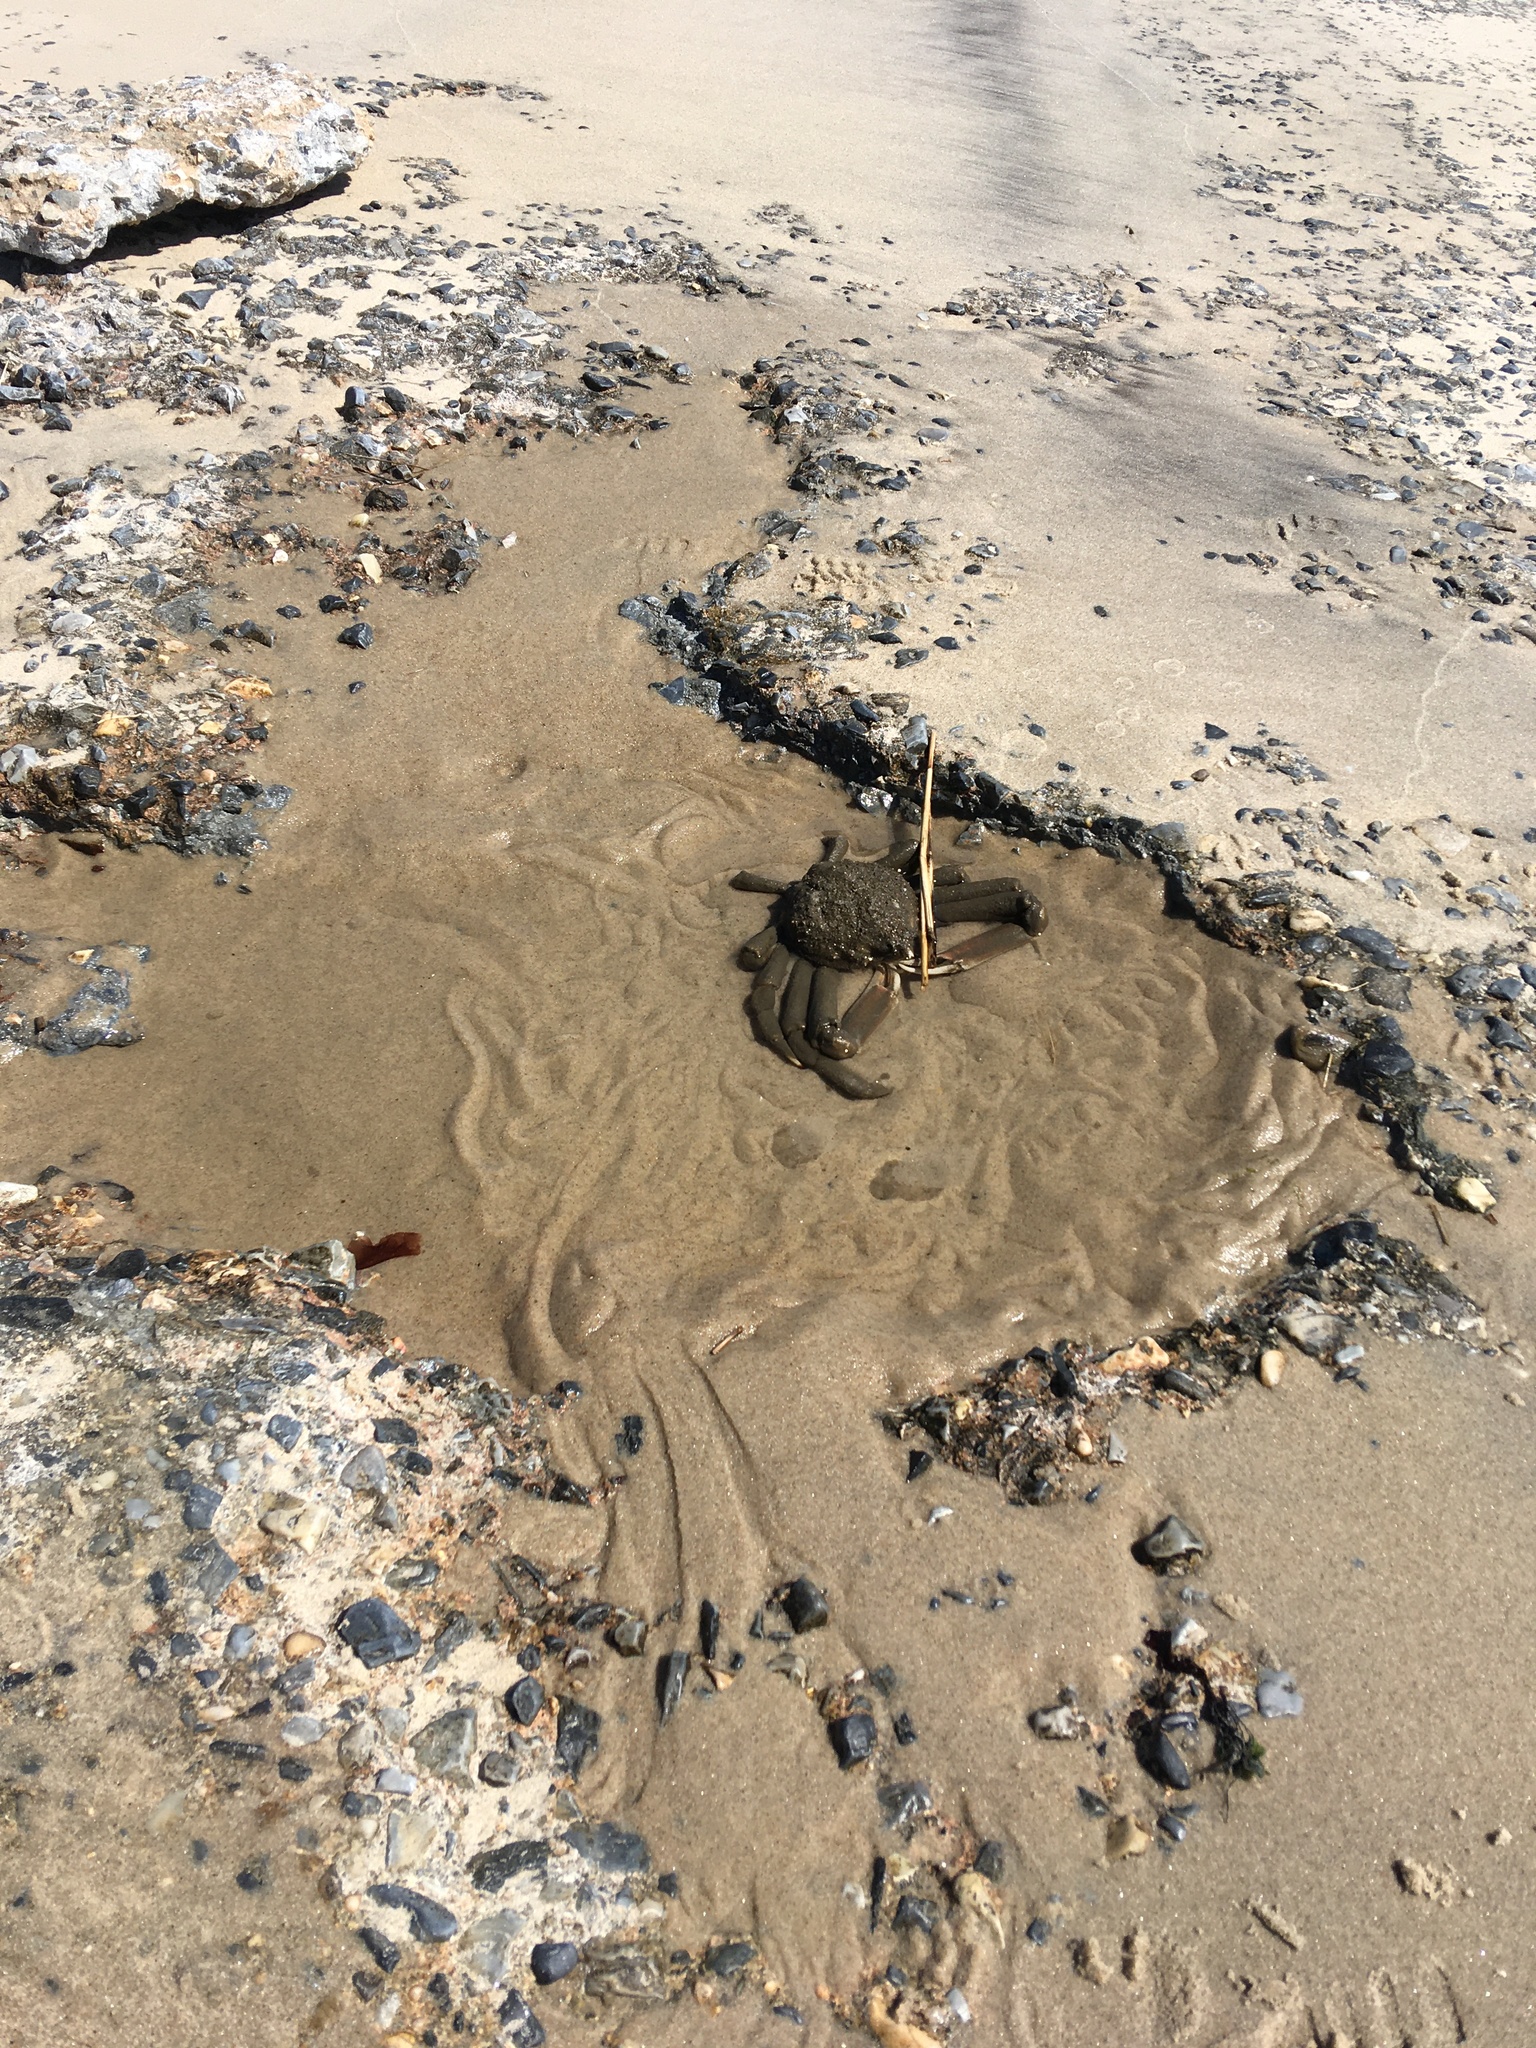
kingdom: Animalia
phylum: Arthropoda
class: Malacostraca
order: Decapoda
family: Epialtidae
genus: Libinia
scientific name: Libinia emarginata
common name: Common spider crab
